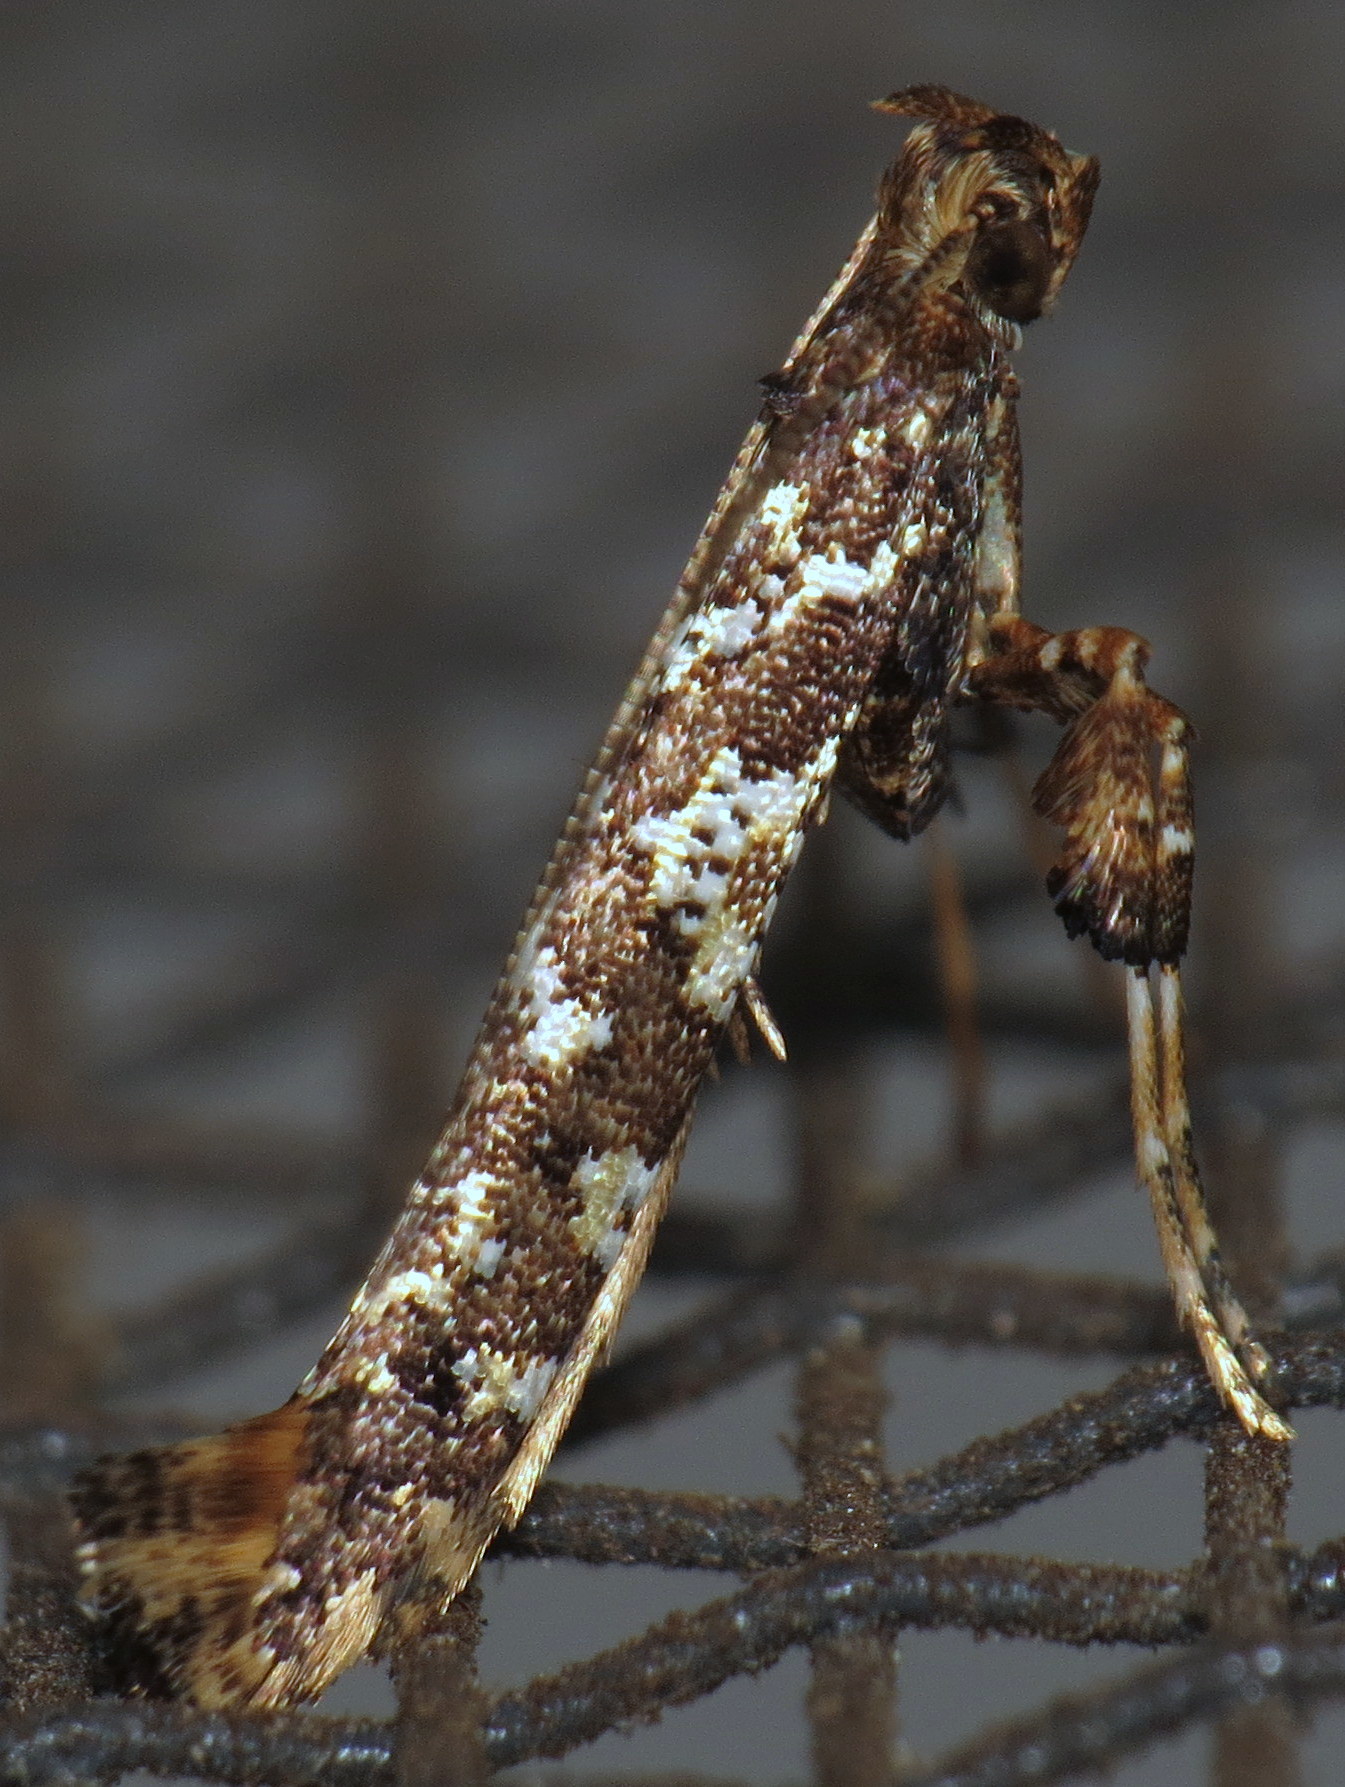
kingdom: Animalia
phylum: Arthropoda
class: Insecta
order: Lepidoptera
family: Gracillariidae
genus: Caloptilia
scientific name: Caloptilia serotinella
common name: Cherry leafroller moth
